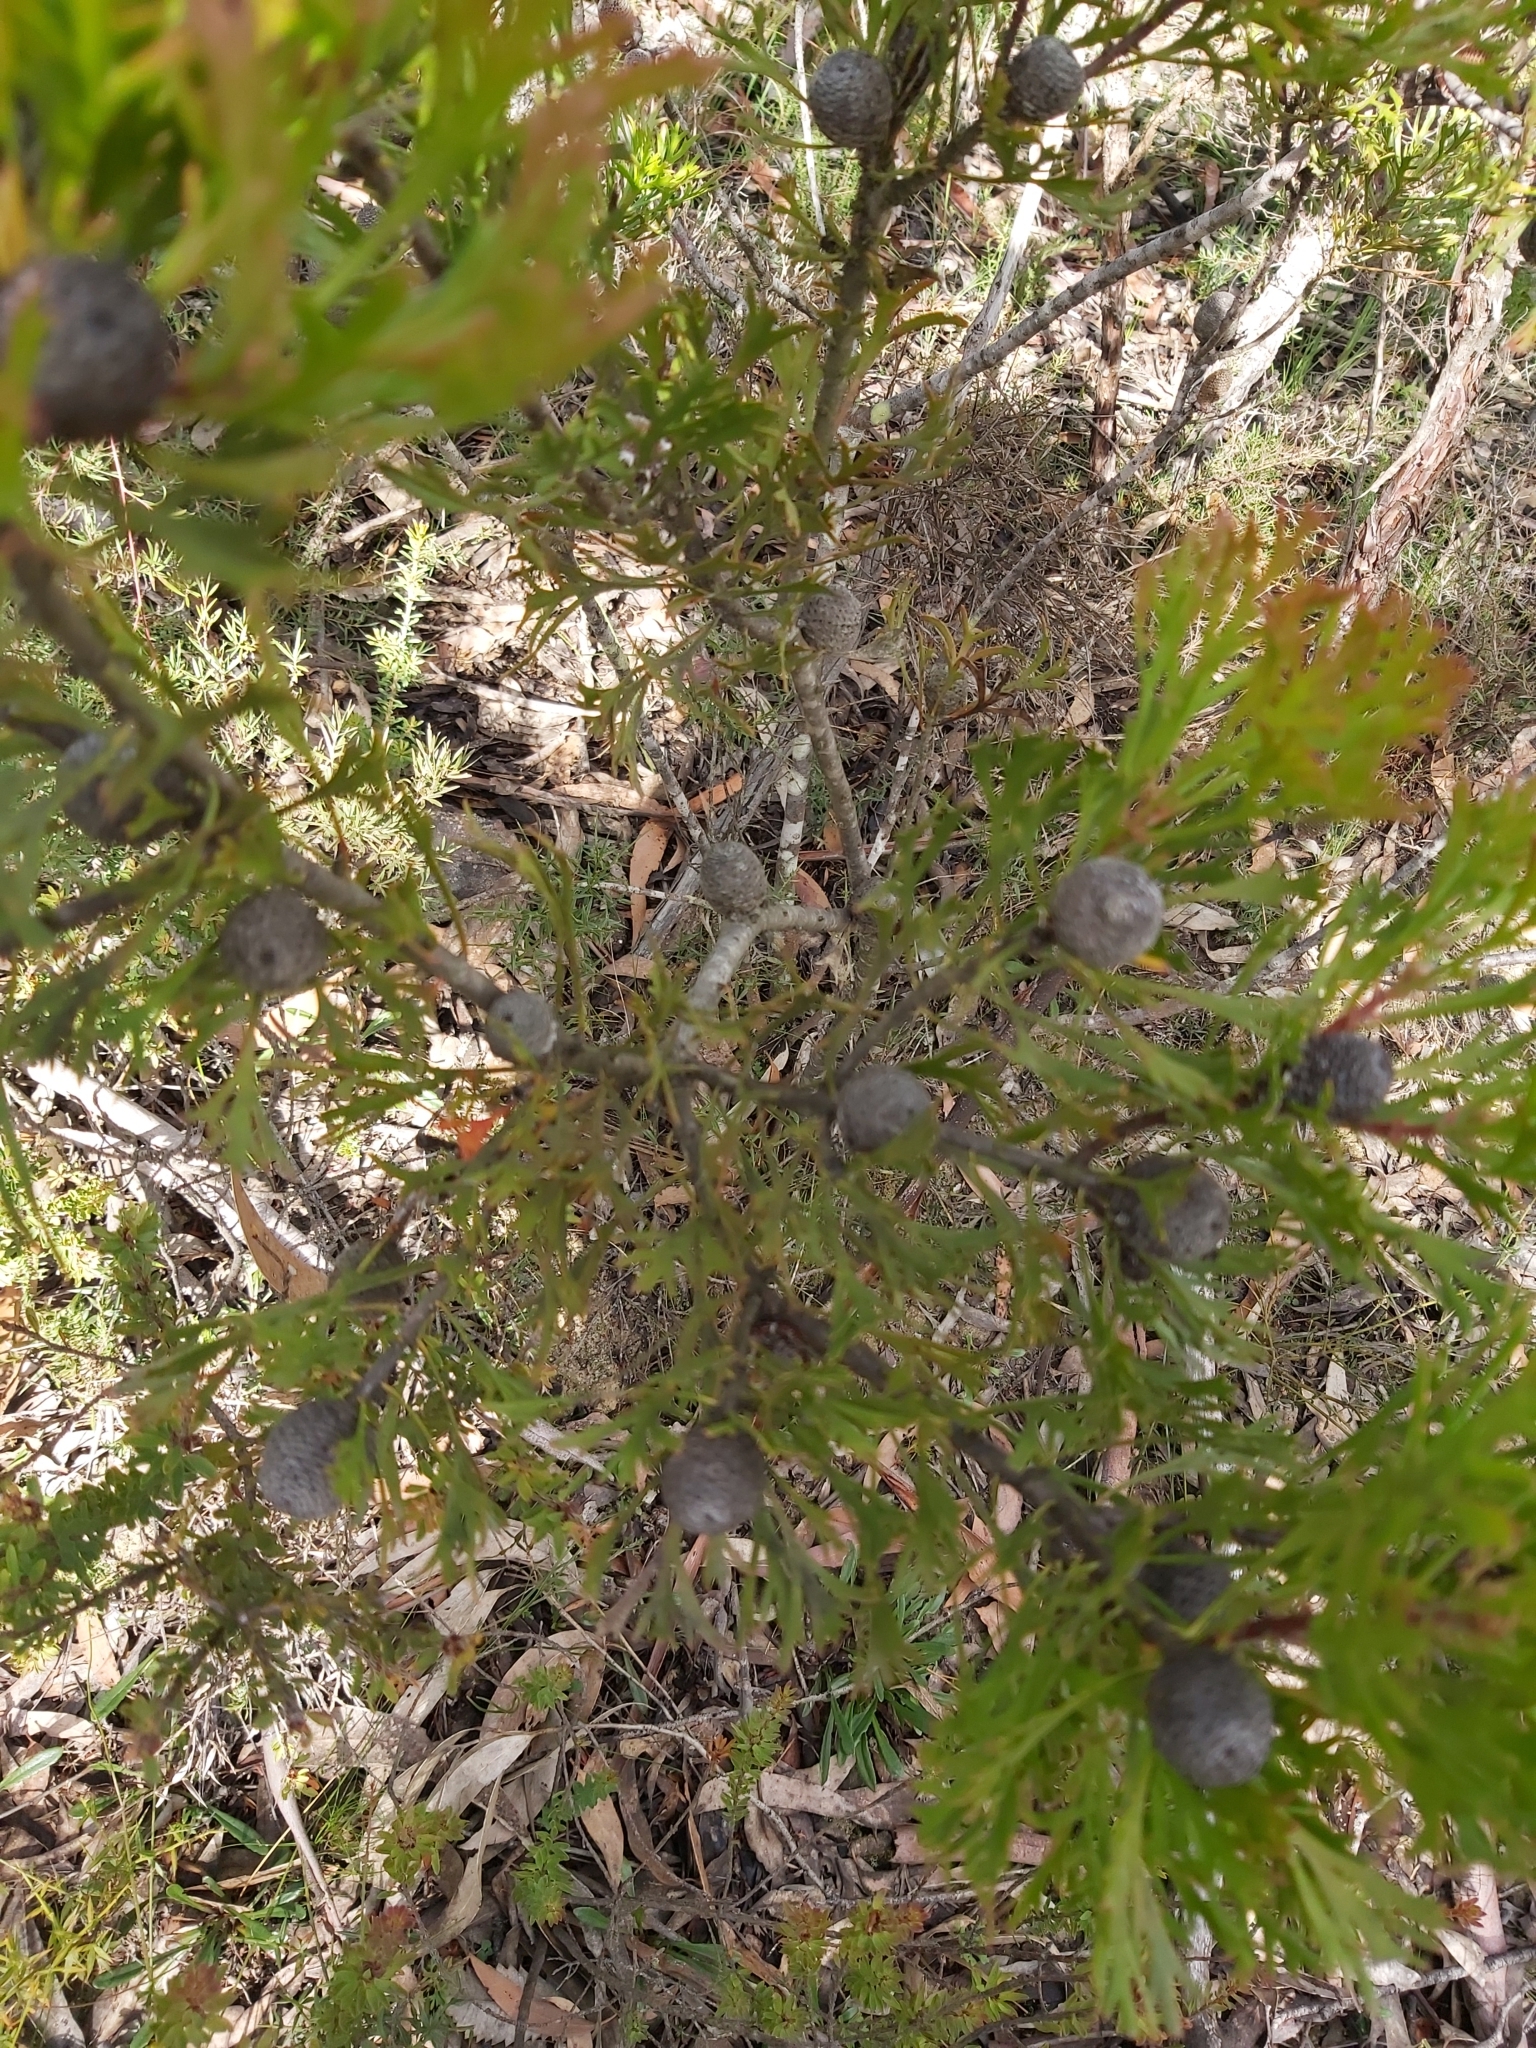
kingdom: Plantae
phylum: Tracheophyta
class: Magnoliopsida
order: Proteales
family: Proteaceae
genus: Isopogon
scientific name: Isopogon anemonifolius
